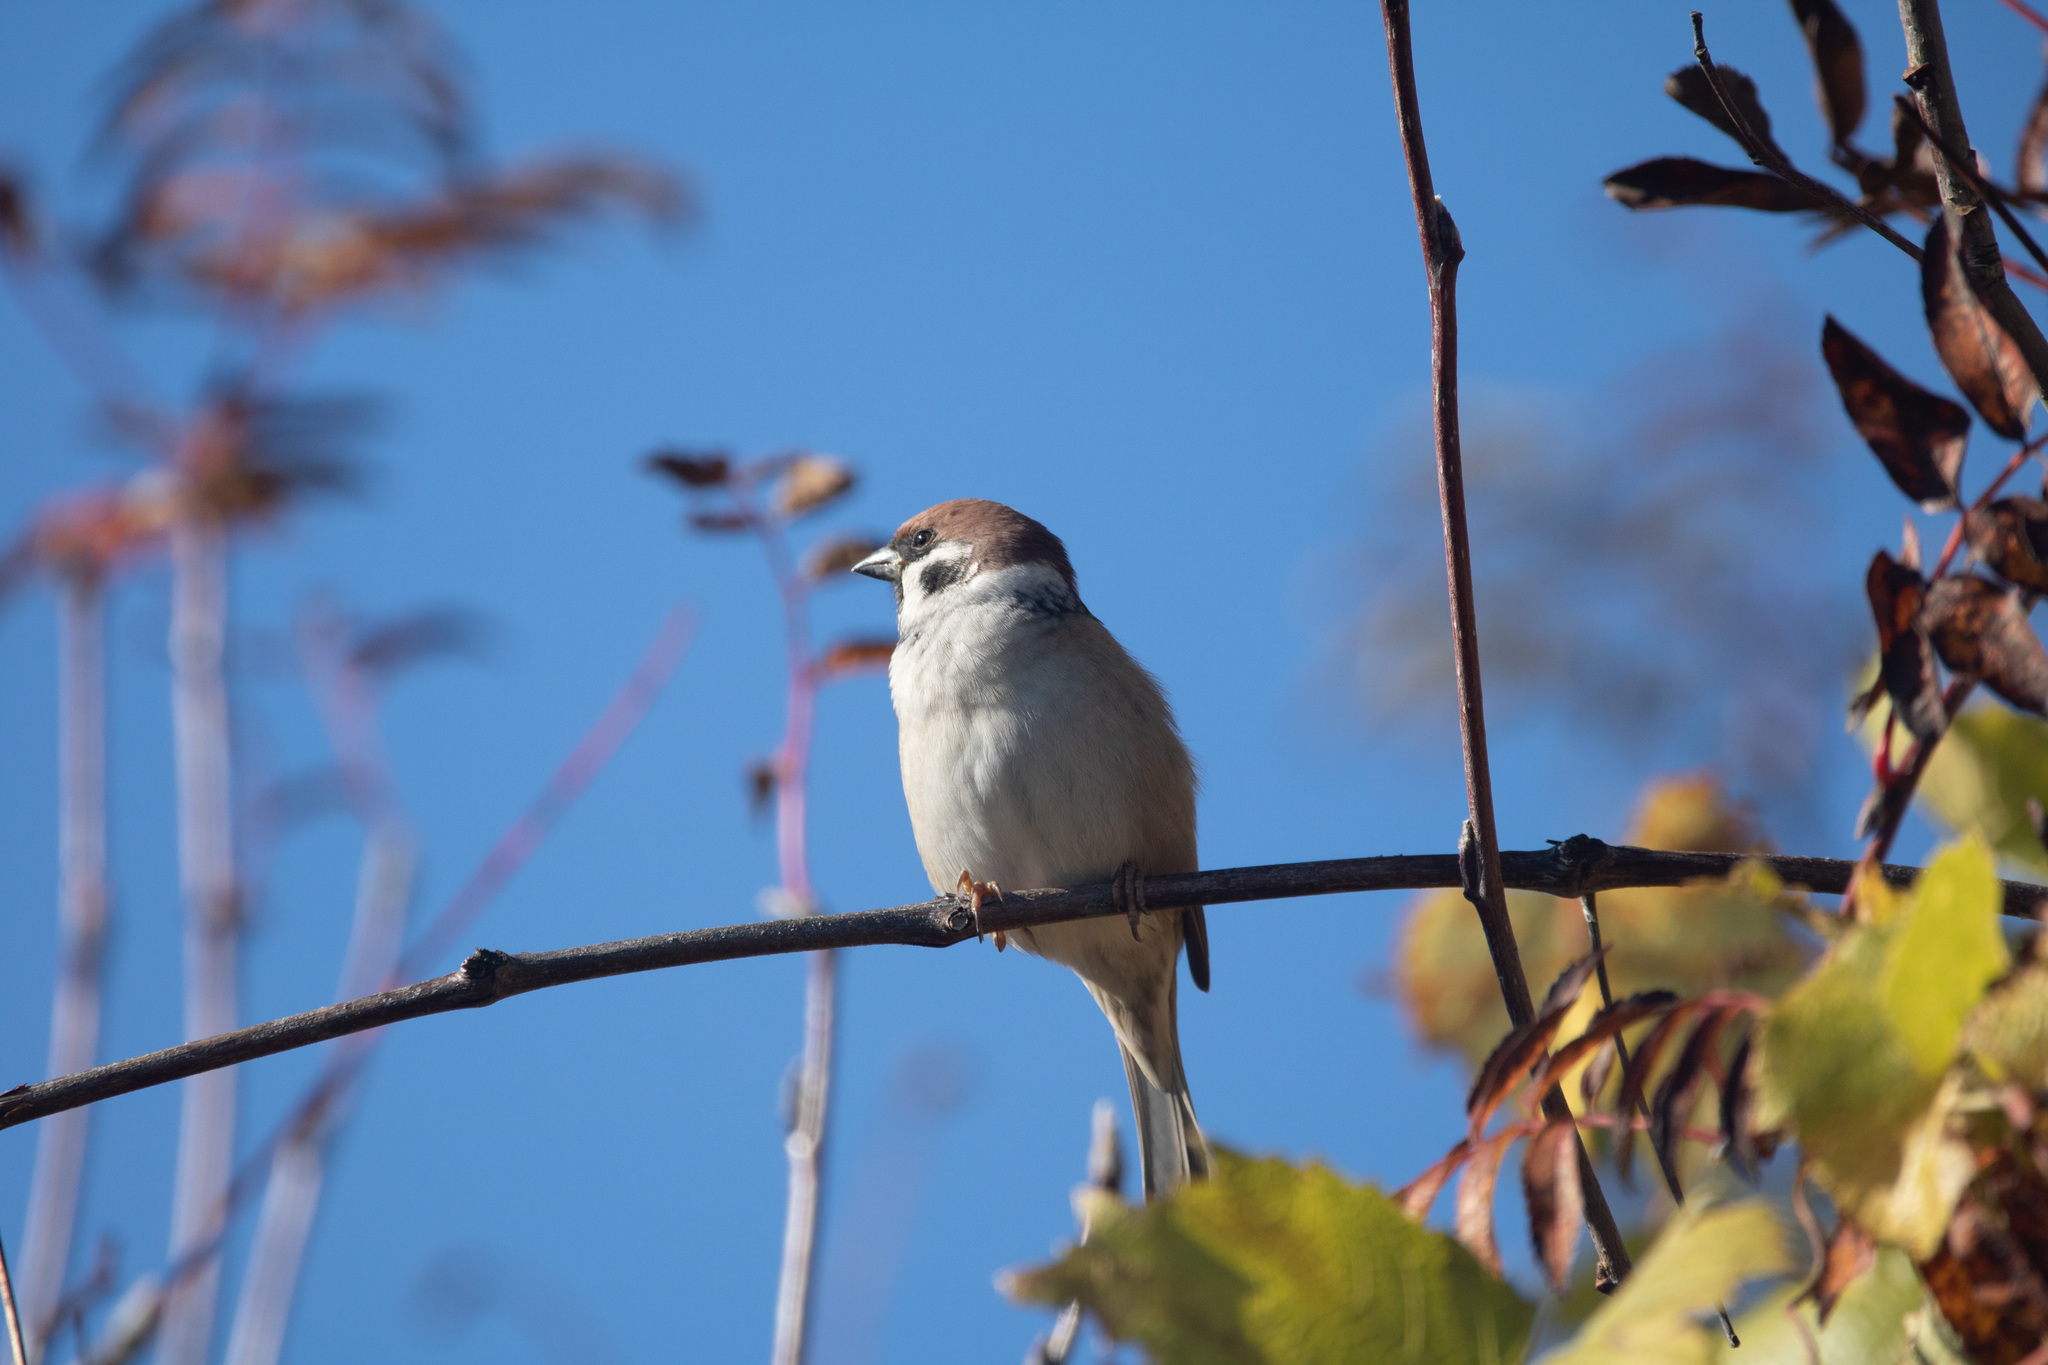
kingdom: Animalia
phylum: Chordata
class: Aves
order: Passeriformes
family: Passeridae
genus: Passer
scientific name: Passer montanus
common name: Eurasian tree sparrow
